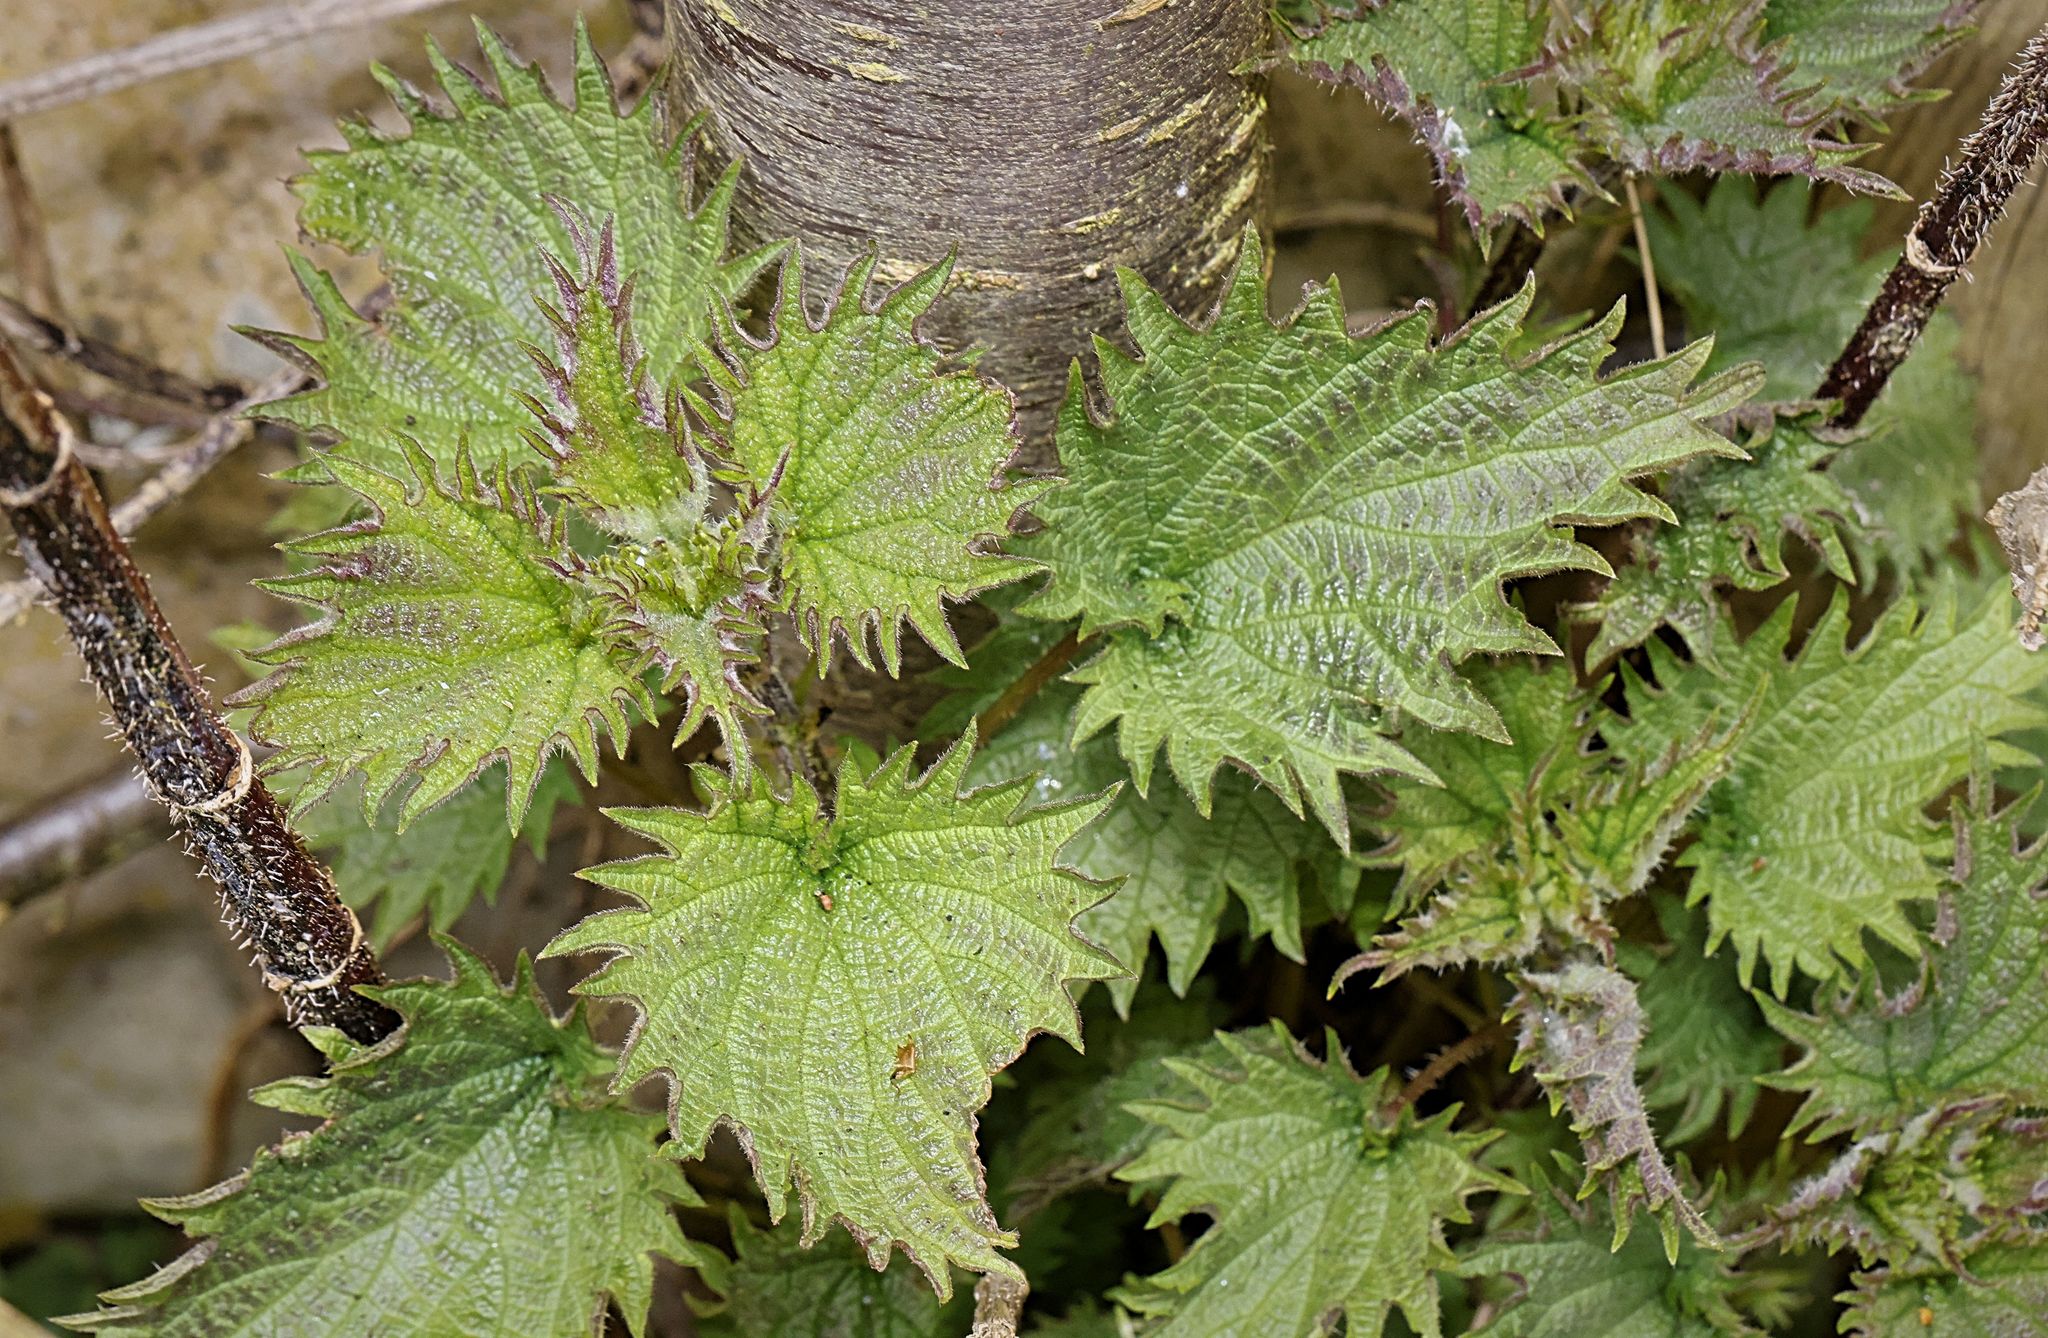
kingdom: Plantae
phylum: Tracheophyta
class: Magnoliopsida
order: Rosales
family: Urticaceae
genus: Urtica
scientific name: Urtica dioica
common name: Common nettle
